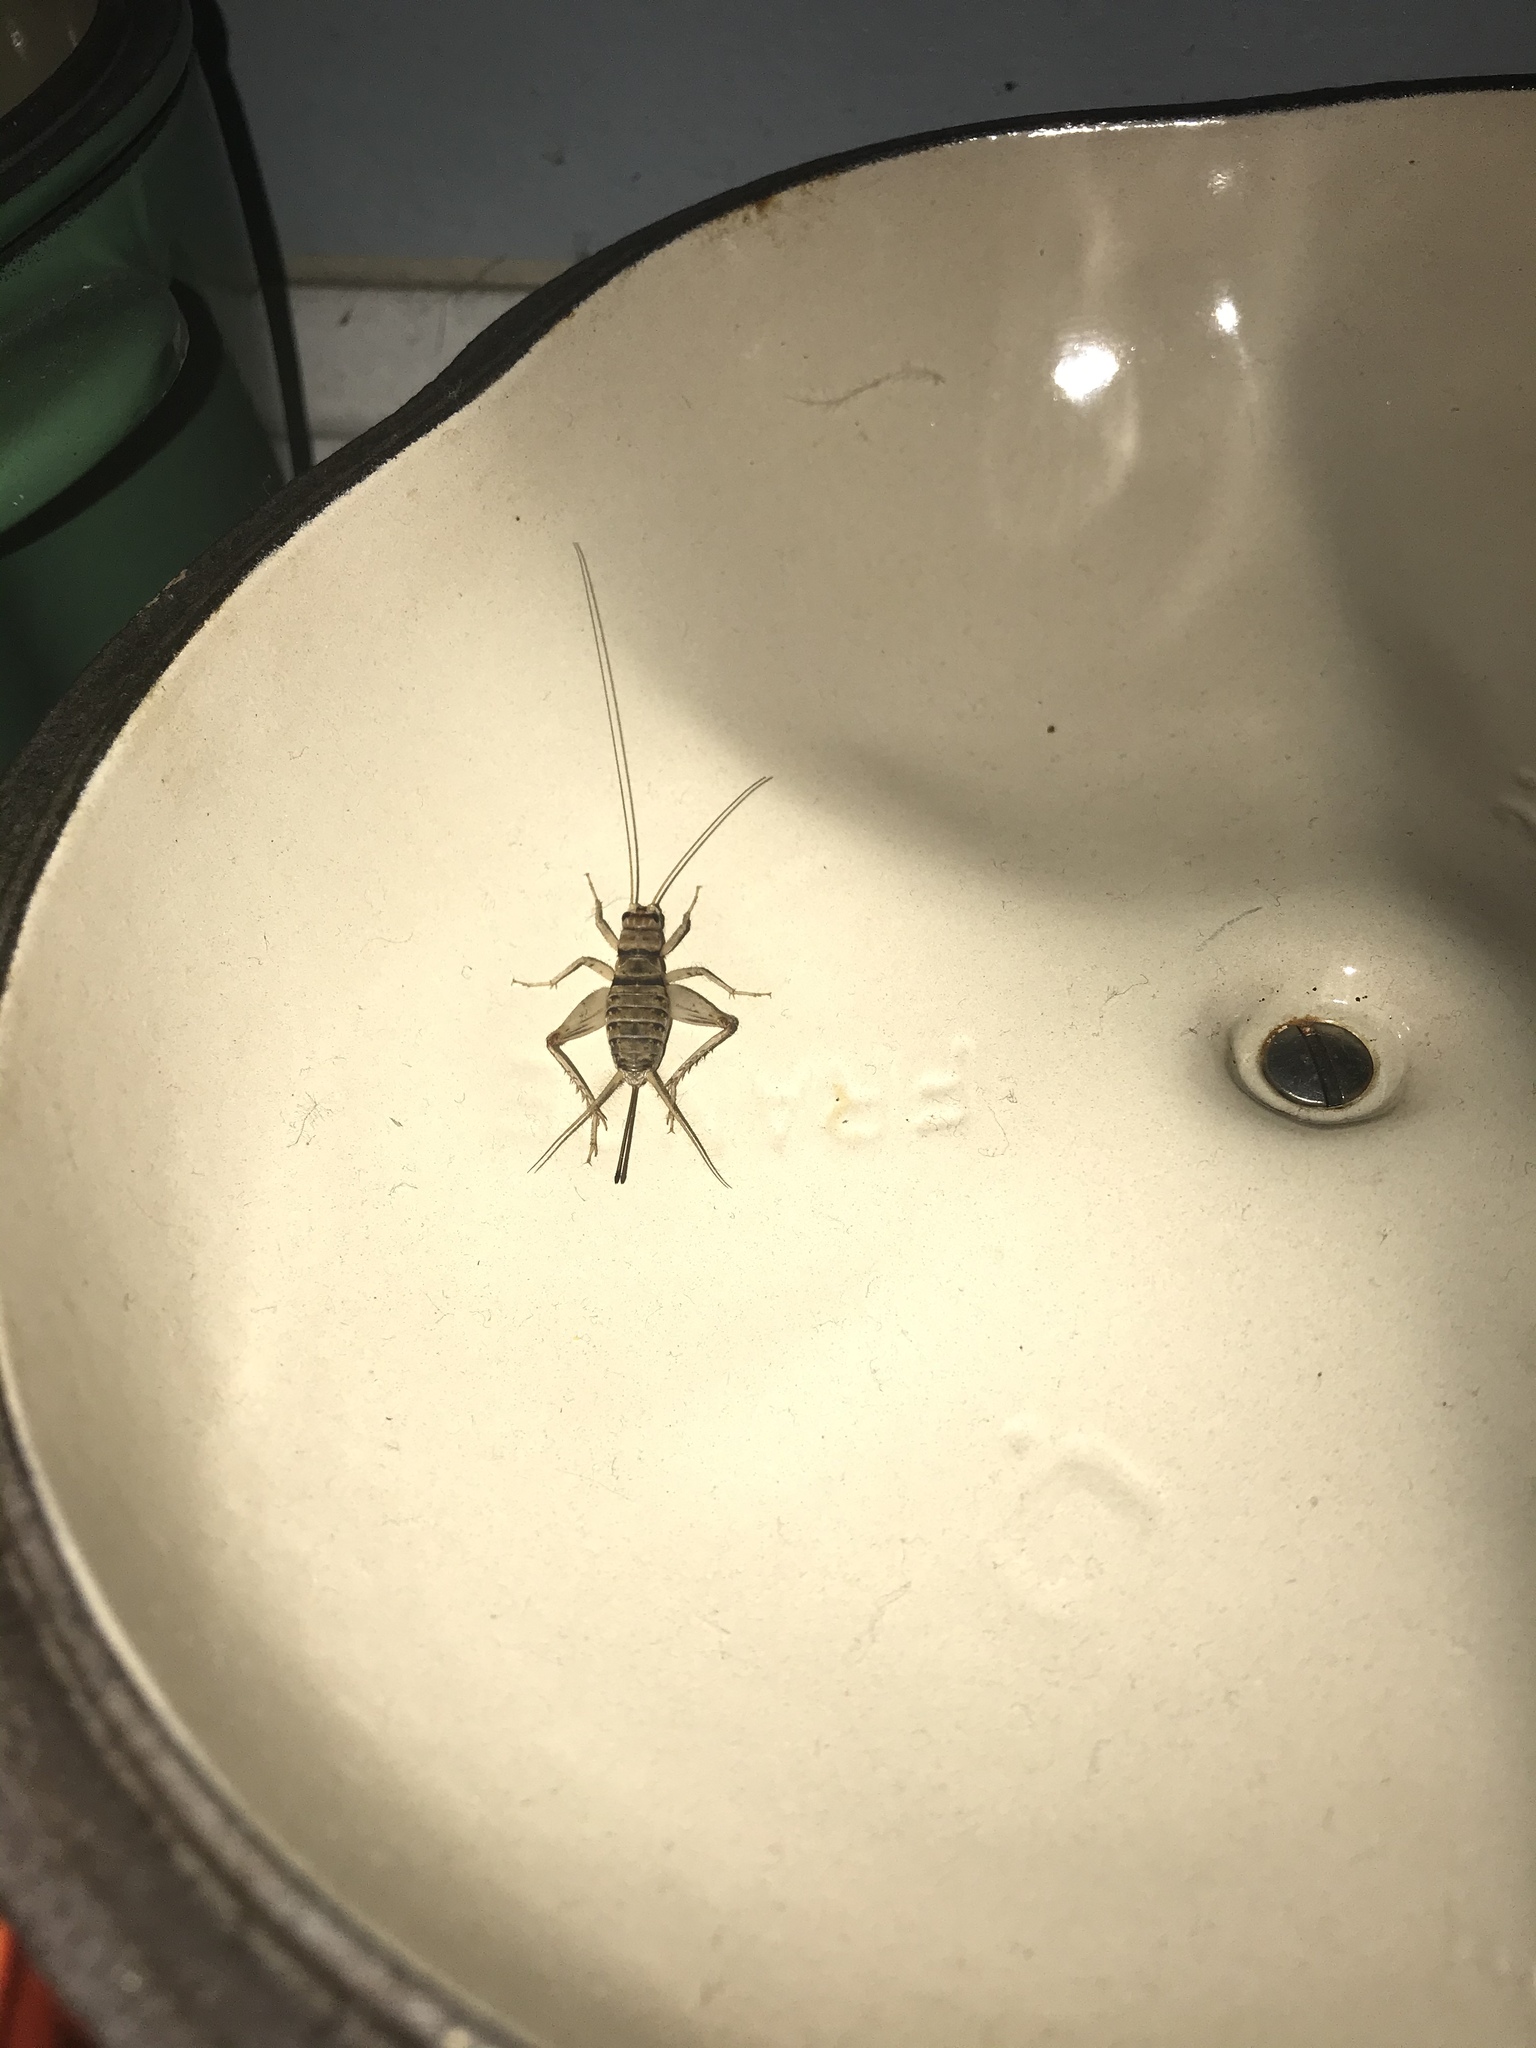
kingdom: Animalia
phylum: Arthropoda
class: Insecta
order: Orthoptera
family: Gryllidae
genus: Gryllodes
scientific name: Gryllodes sigillatus
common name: Tropical house cricket
